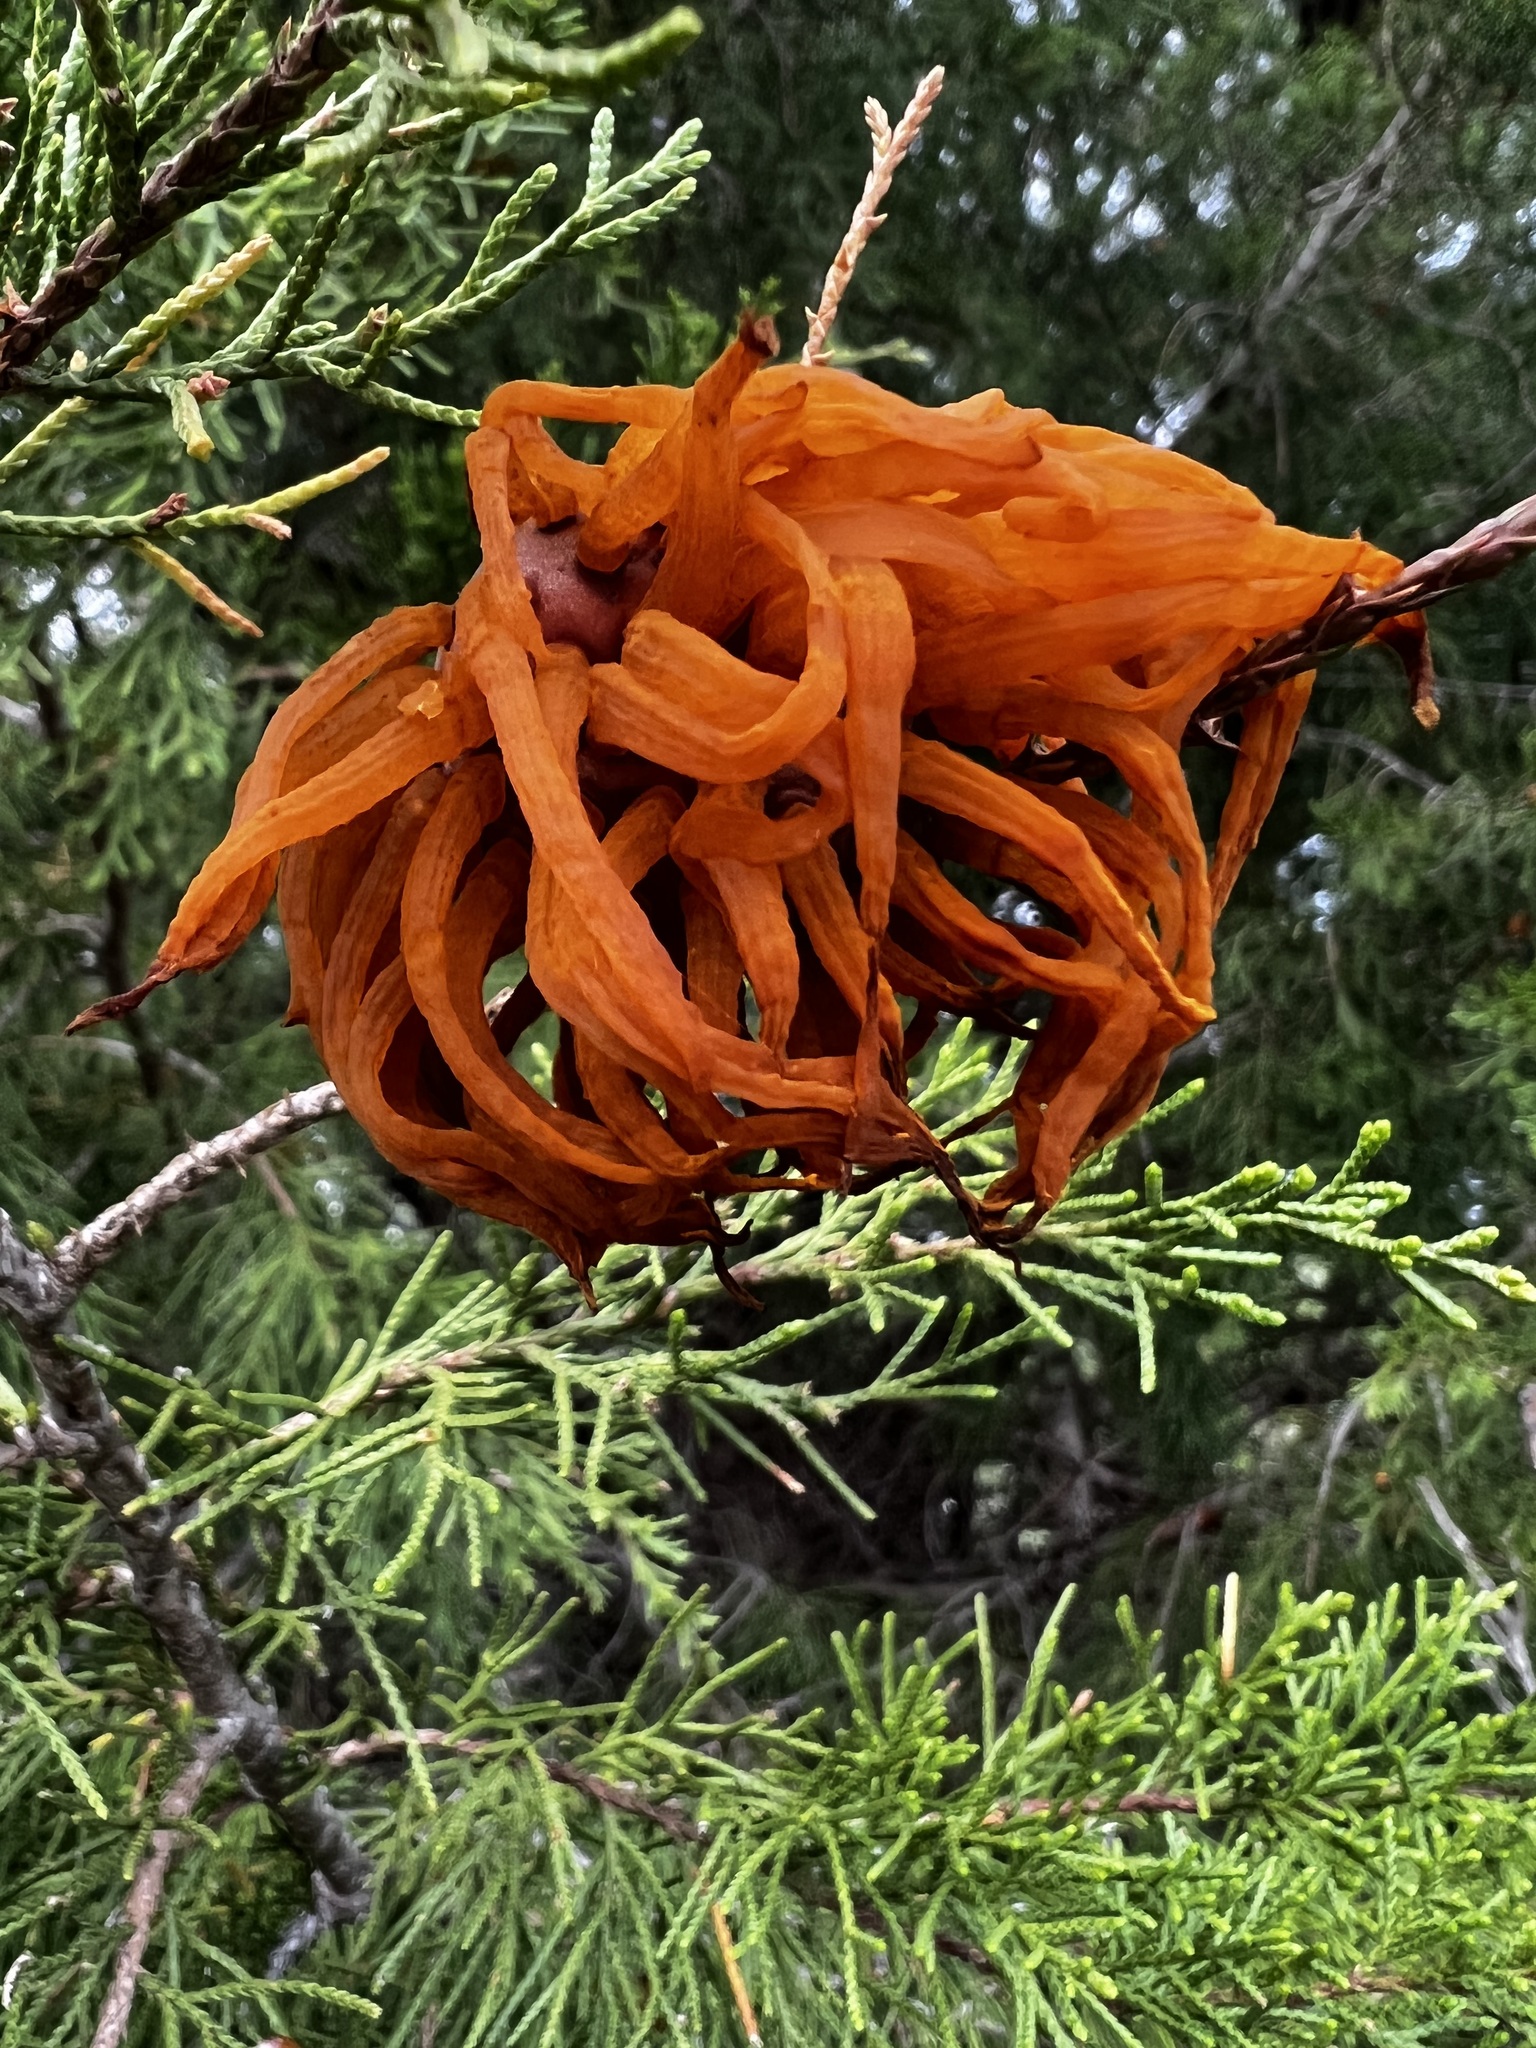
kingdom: Fungi
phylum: Basidiomycota
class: Pucciniomycetes
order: Pucciniales
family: Gymnosporangiaceae
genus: Gymnosporangium
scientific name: Gymnosporangium juniperi-virginianae
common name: Juniper-apple rust
